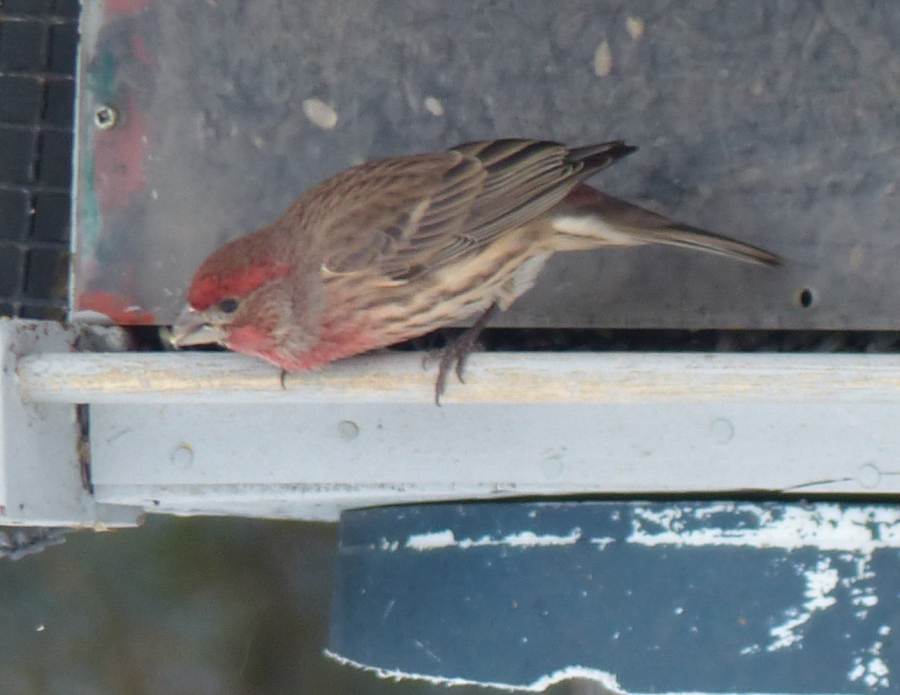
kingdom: Animalia
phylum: Chordata
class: Aves
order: Passeriformes
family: Fringillidae
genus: Haemorhous
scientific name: Haemorhous mexicanus
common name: House finch
